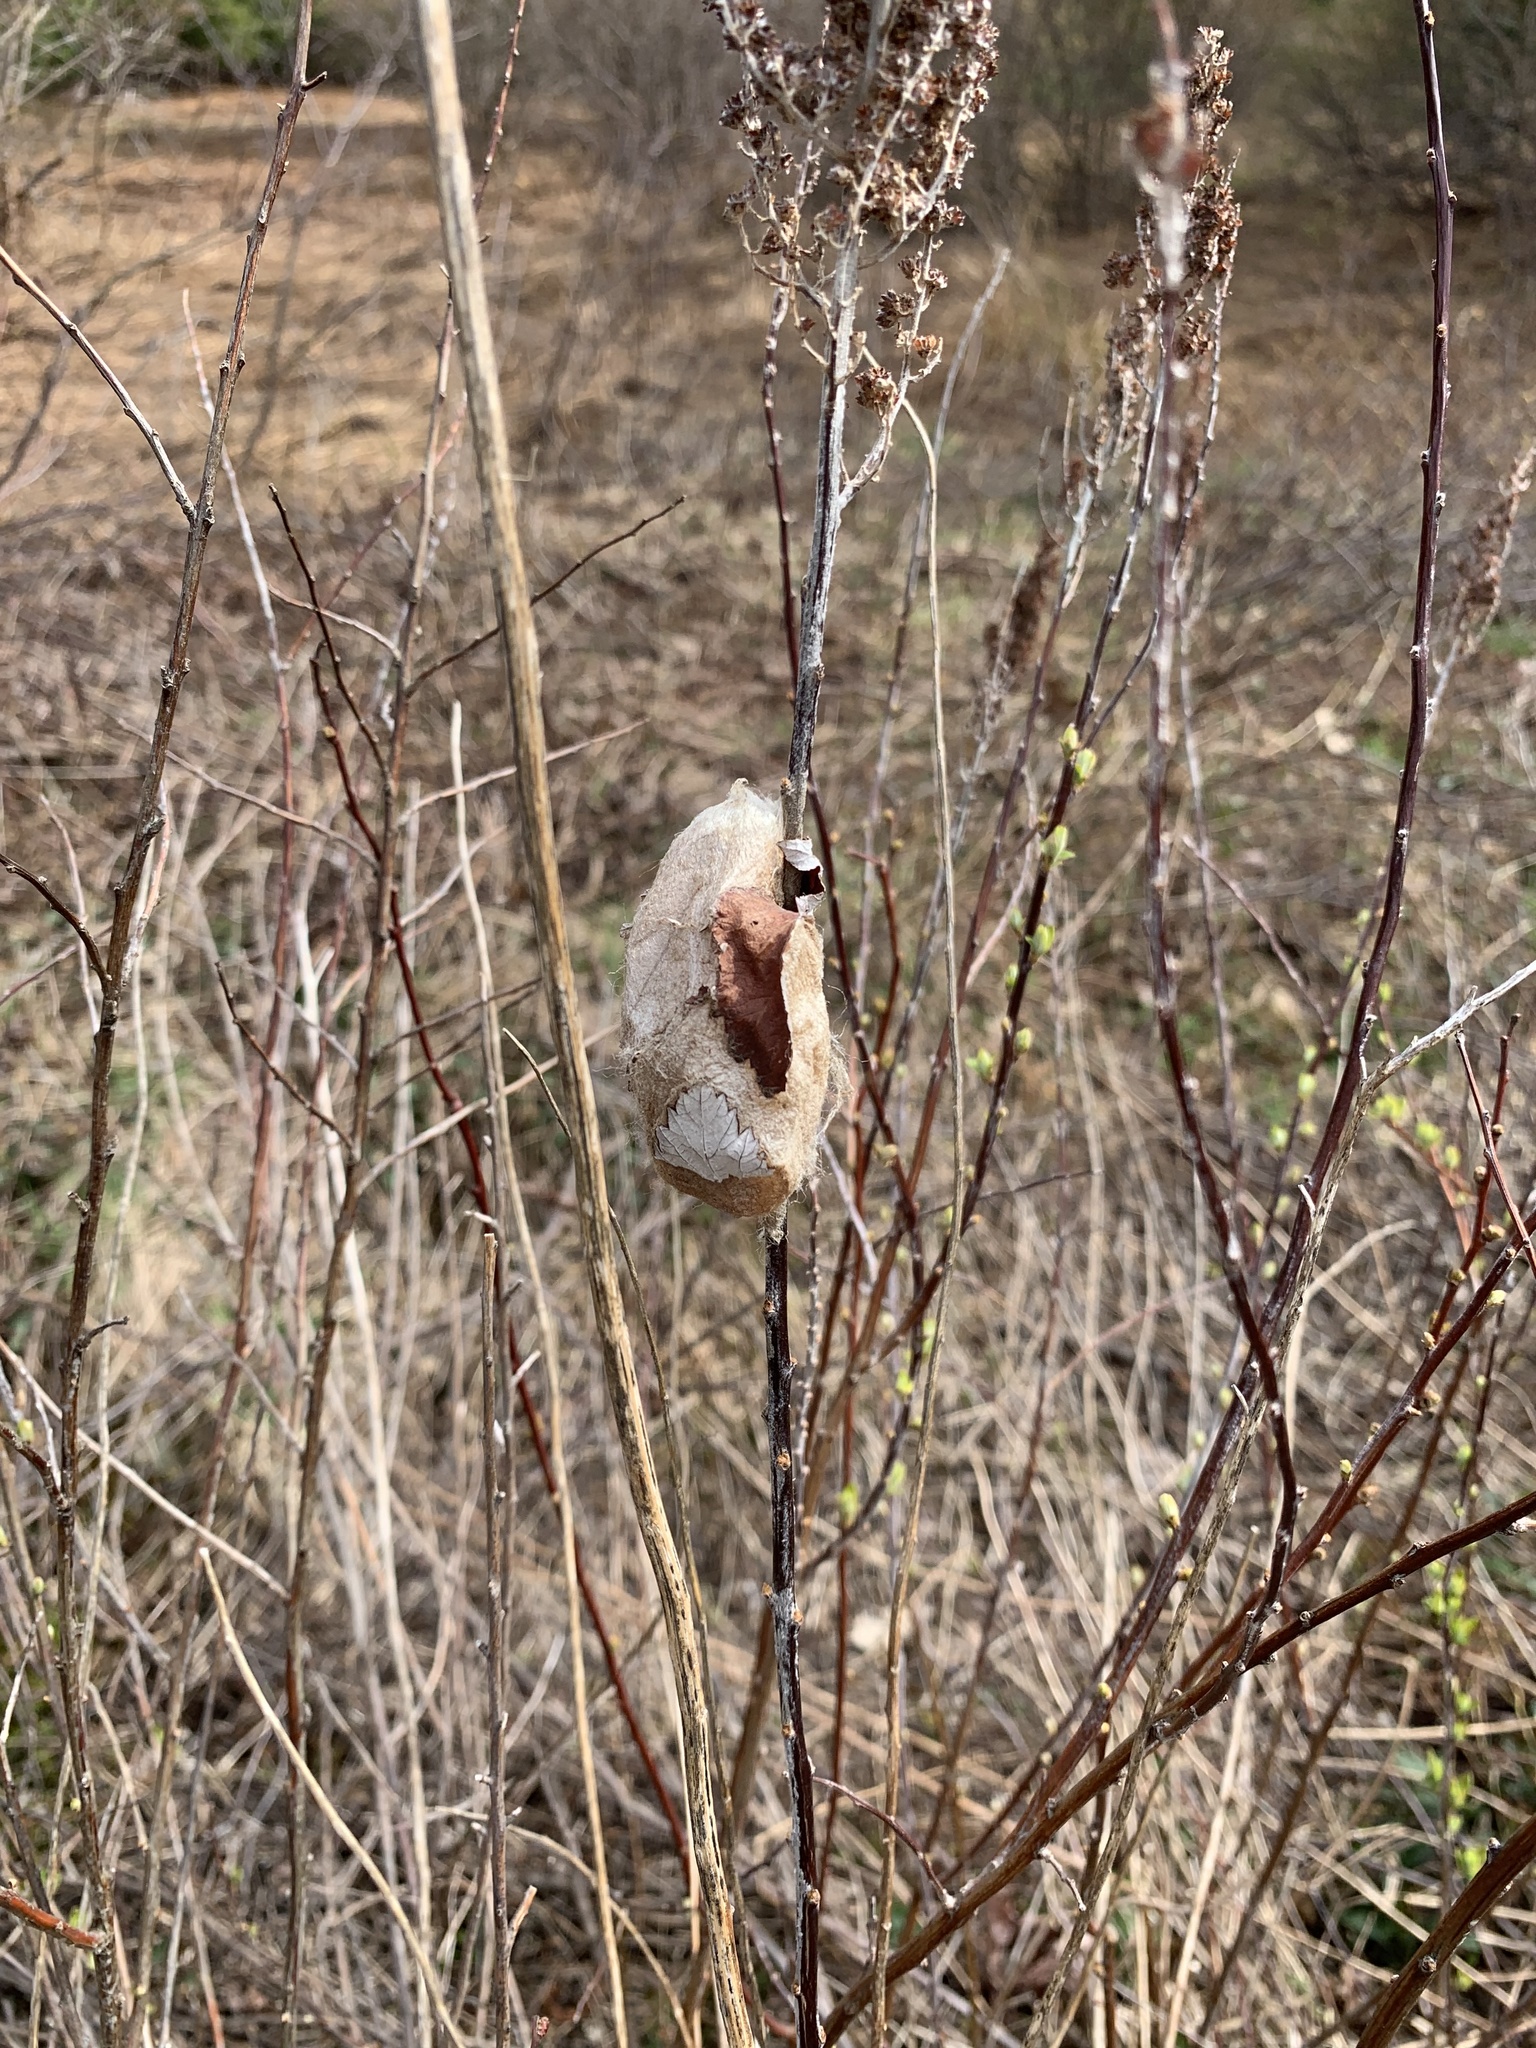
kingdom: Animalia
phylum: Arthropoda
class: Insecta
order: Lepidoptera
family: Saturniidae
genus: Antheraea
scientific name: Antheraea polyphemus
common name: Polyphemus moth
